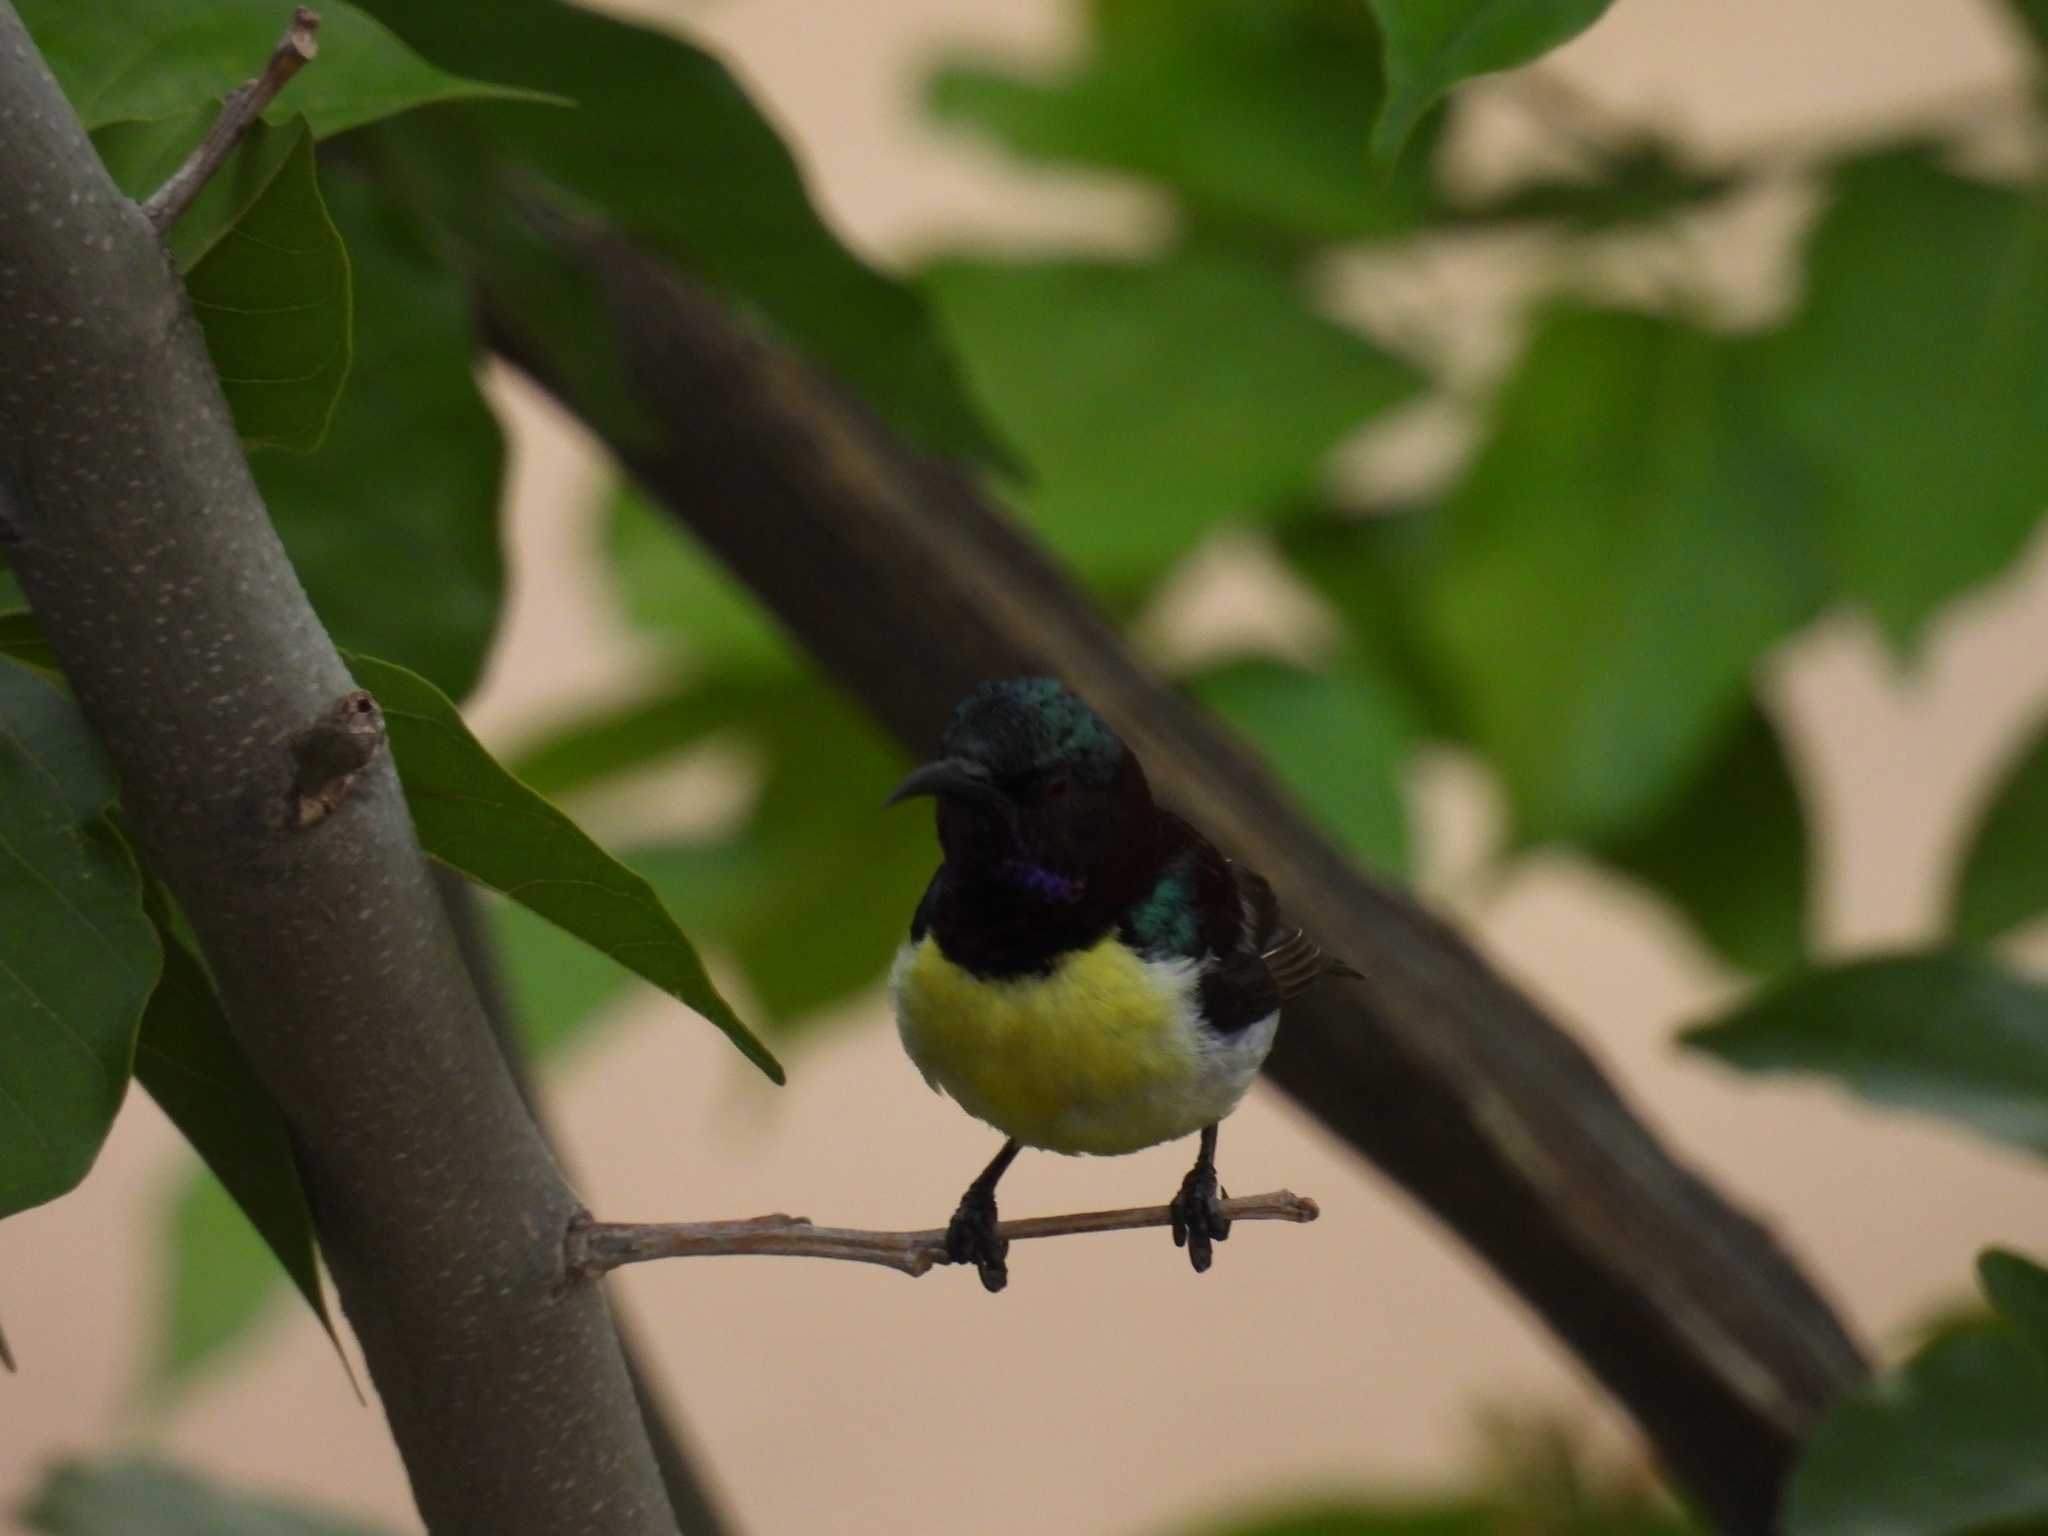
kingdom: Animalia
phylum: Chordata
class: Aves
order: Passeriformes
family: Nectariniidae
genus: Leptocoma
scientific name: Leptocoma zeylonica
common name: Purple-rumped sunbird
